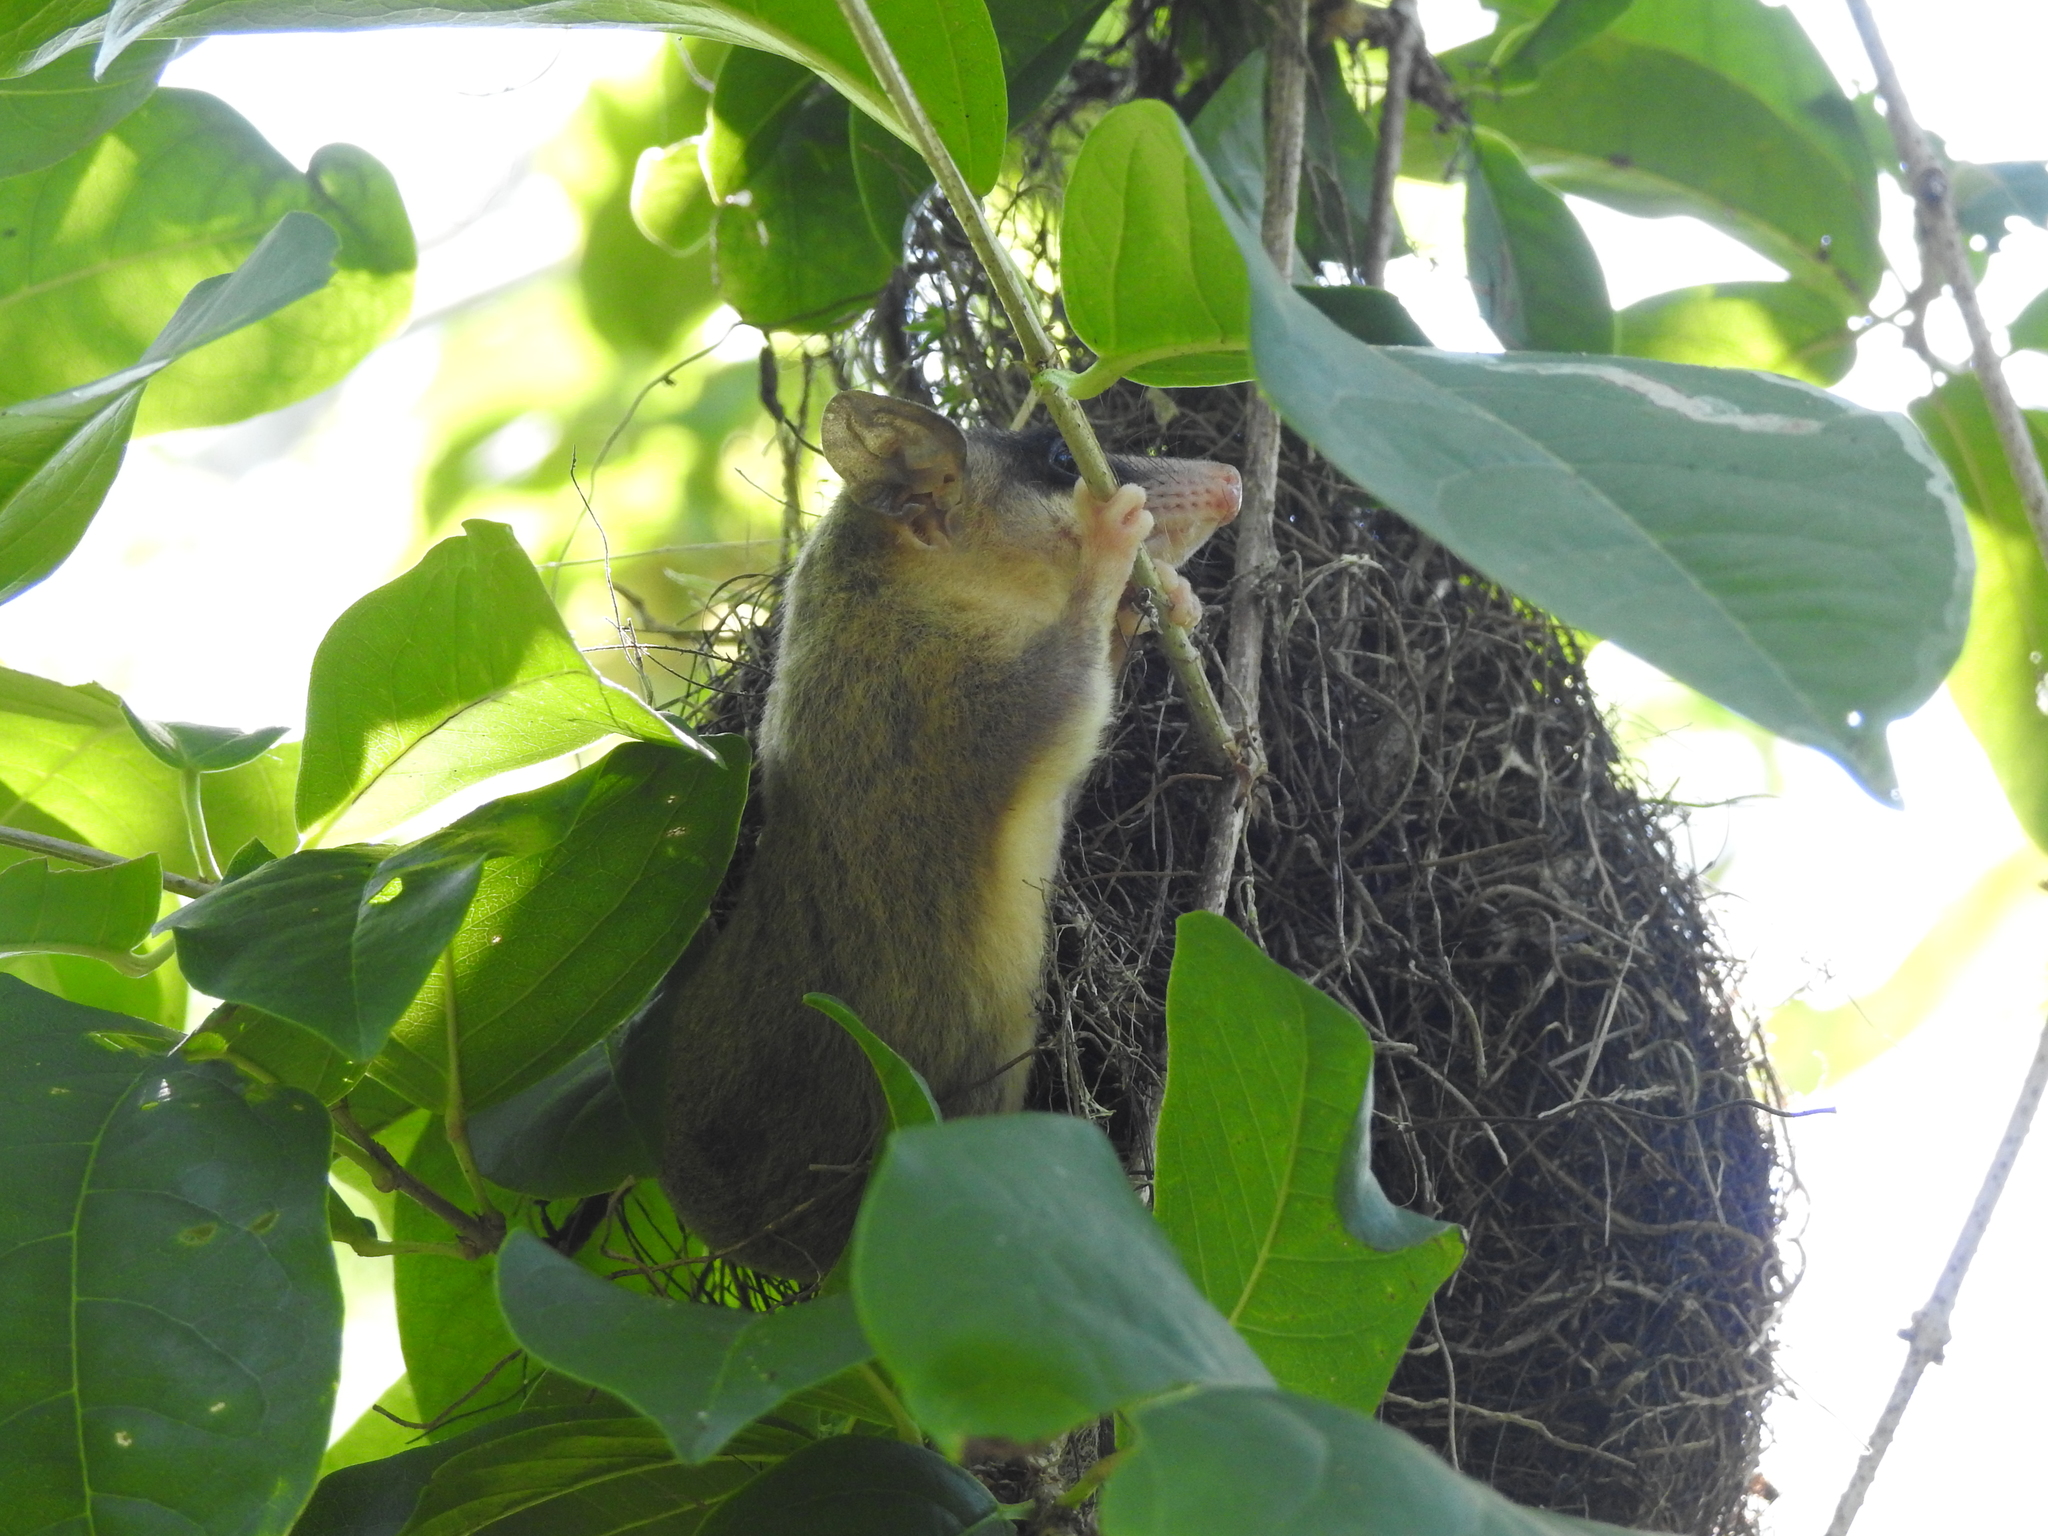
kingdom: Animalia
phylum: Chordata
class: Mammalia
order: Didelphimorphia
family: Didelphidae
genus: Tlacuatzin
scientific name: Tlacuatzin
